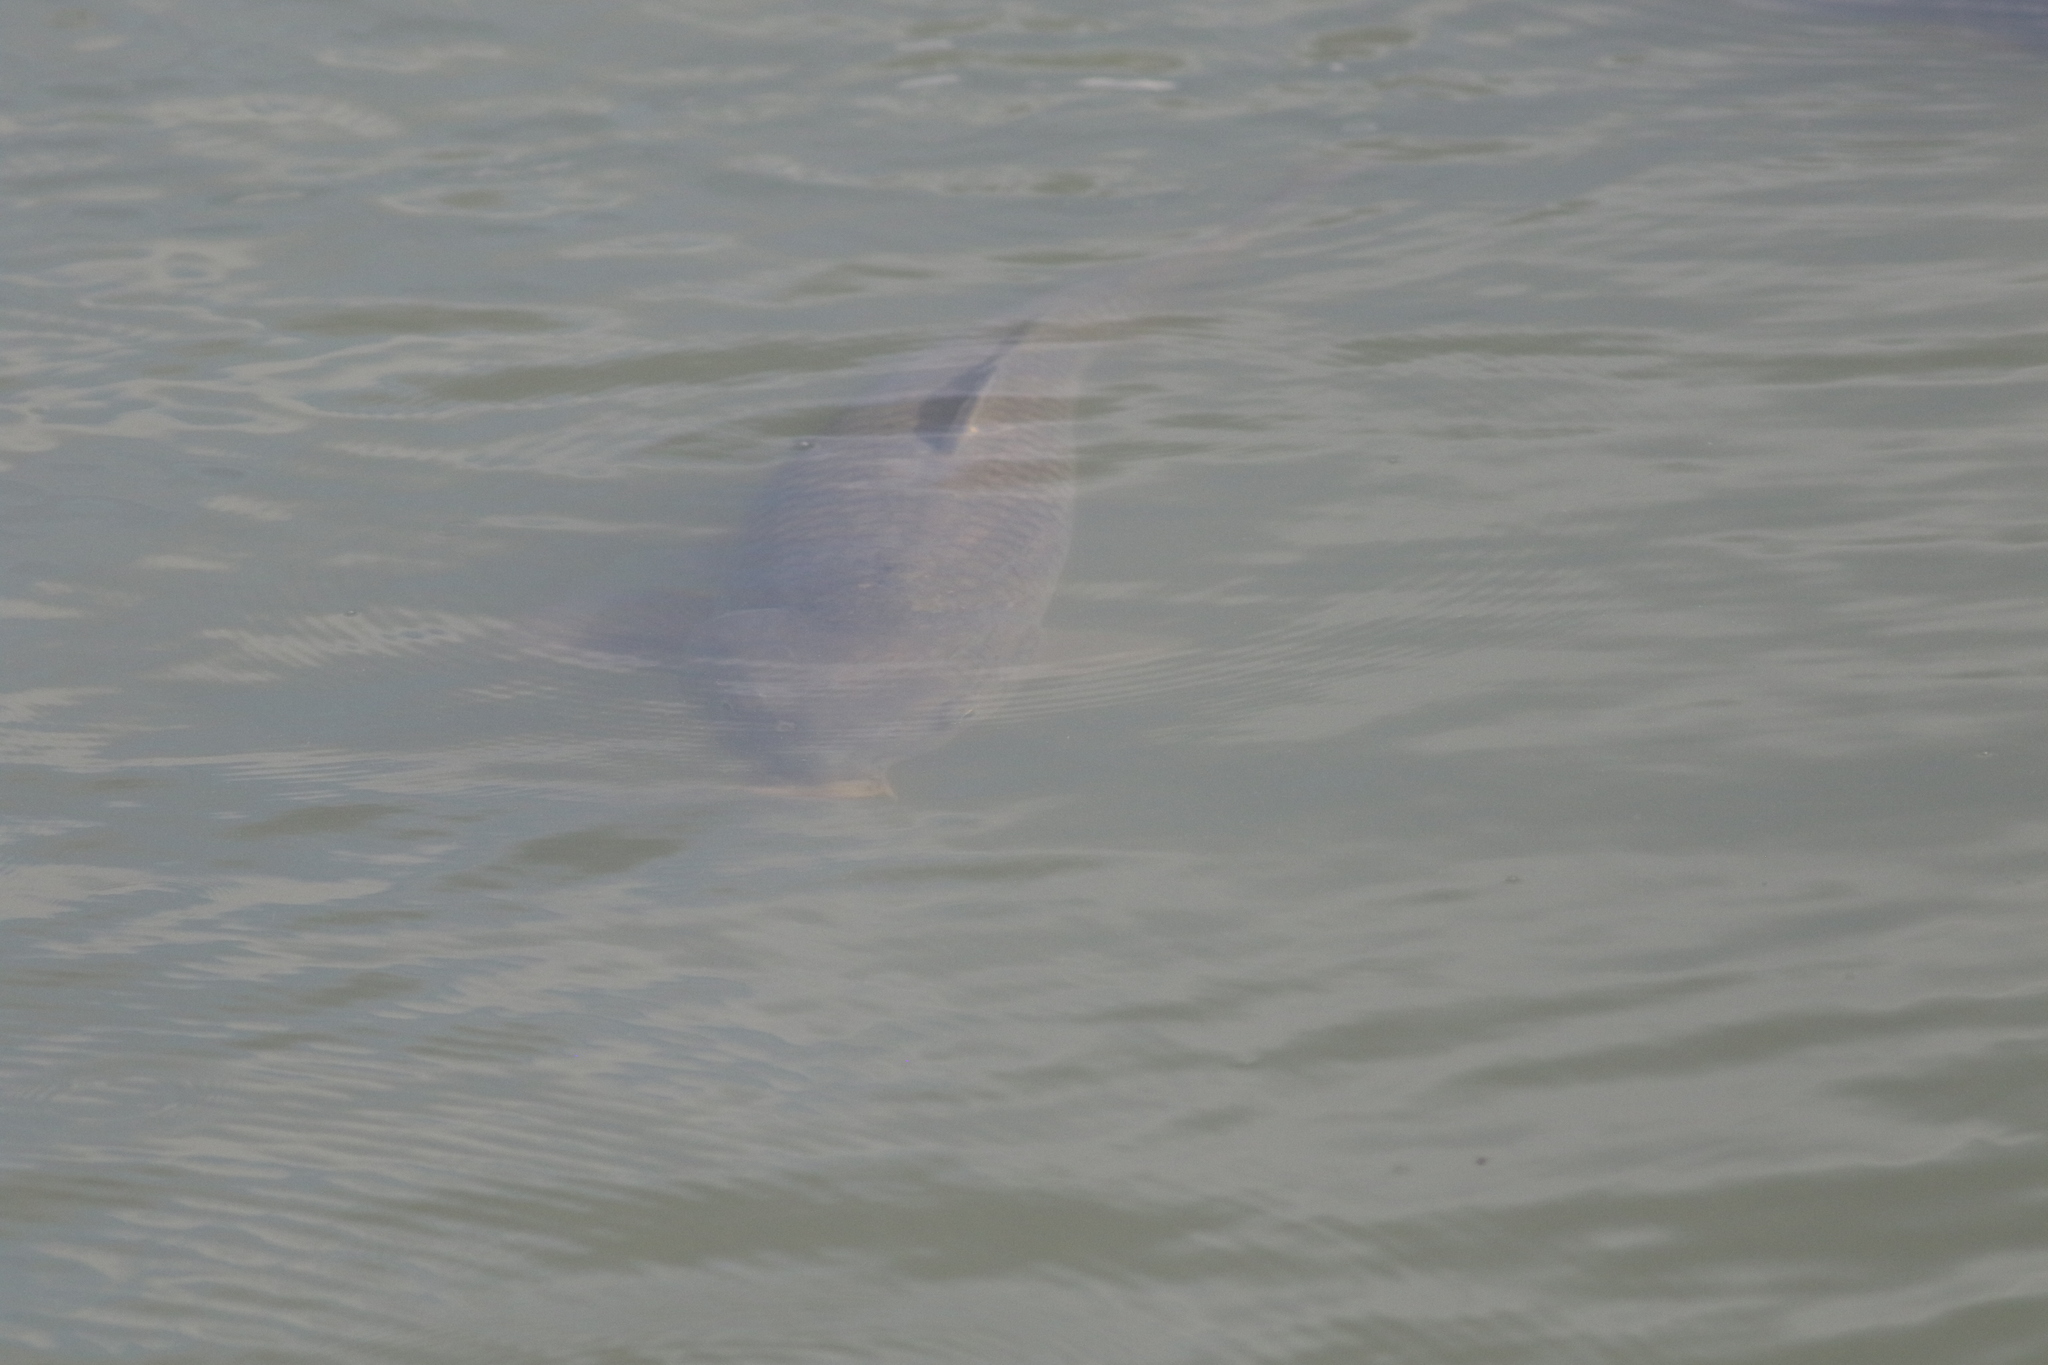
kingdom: Animalia
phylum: Chordata
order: Cypriniformes
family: Cyprinidae
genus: Cyprinus
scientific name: Cyprinus carpio
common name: Common carp
